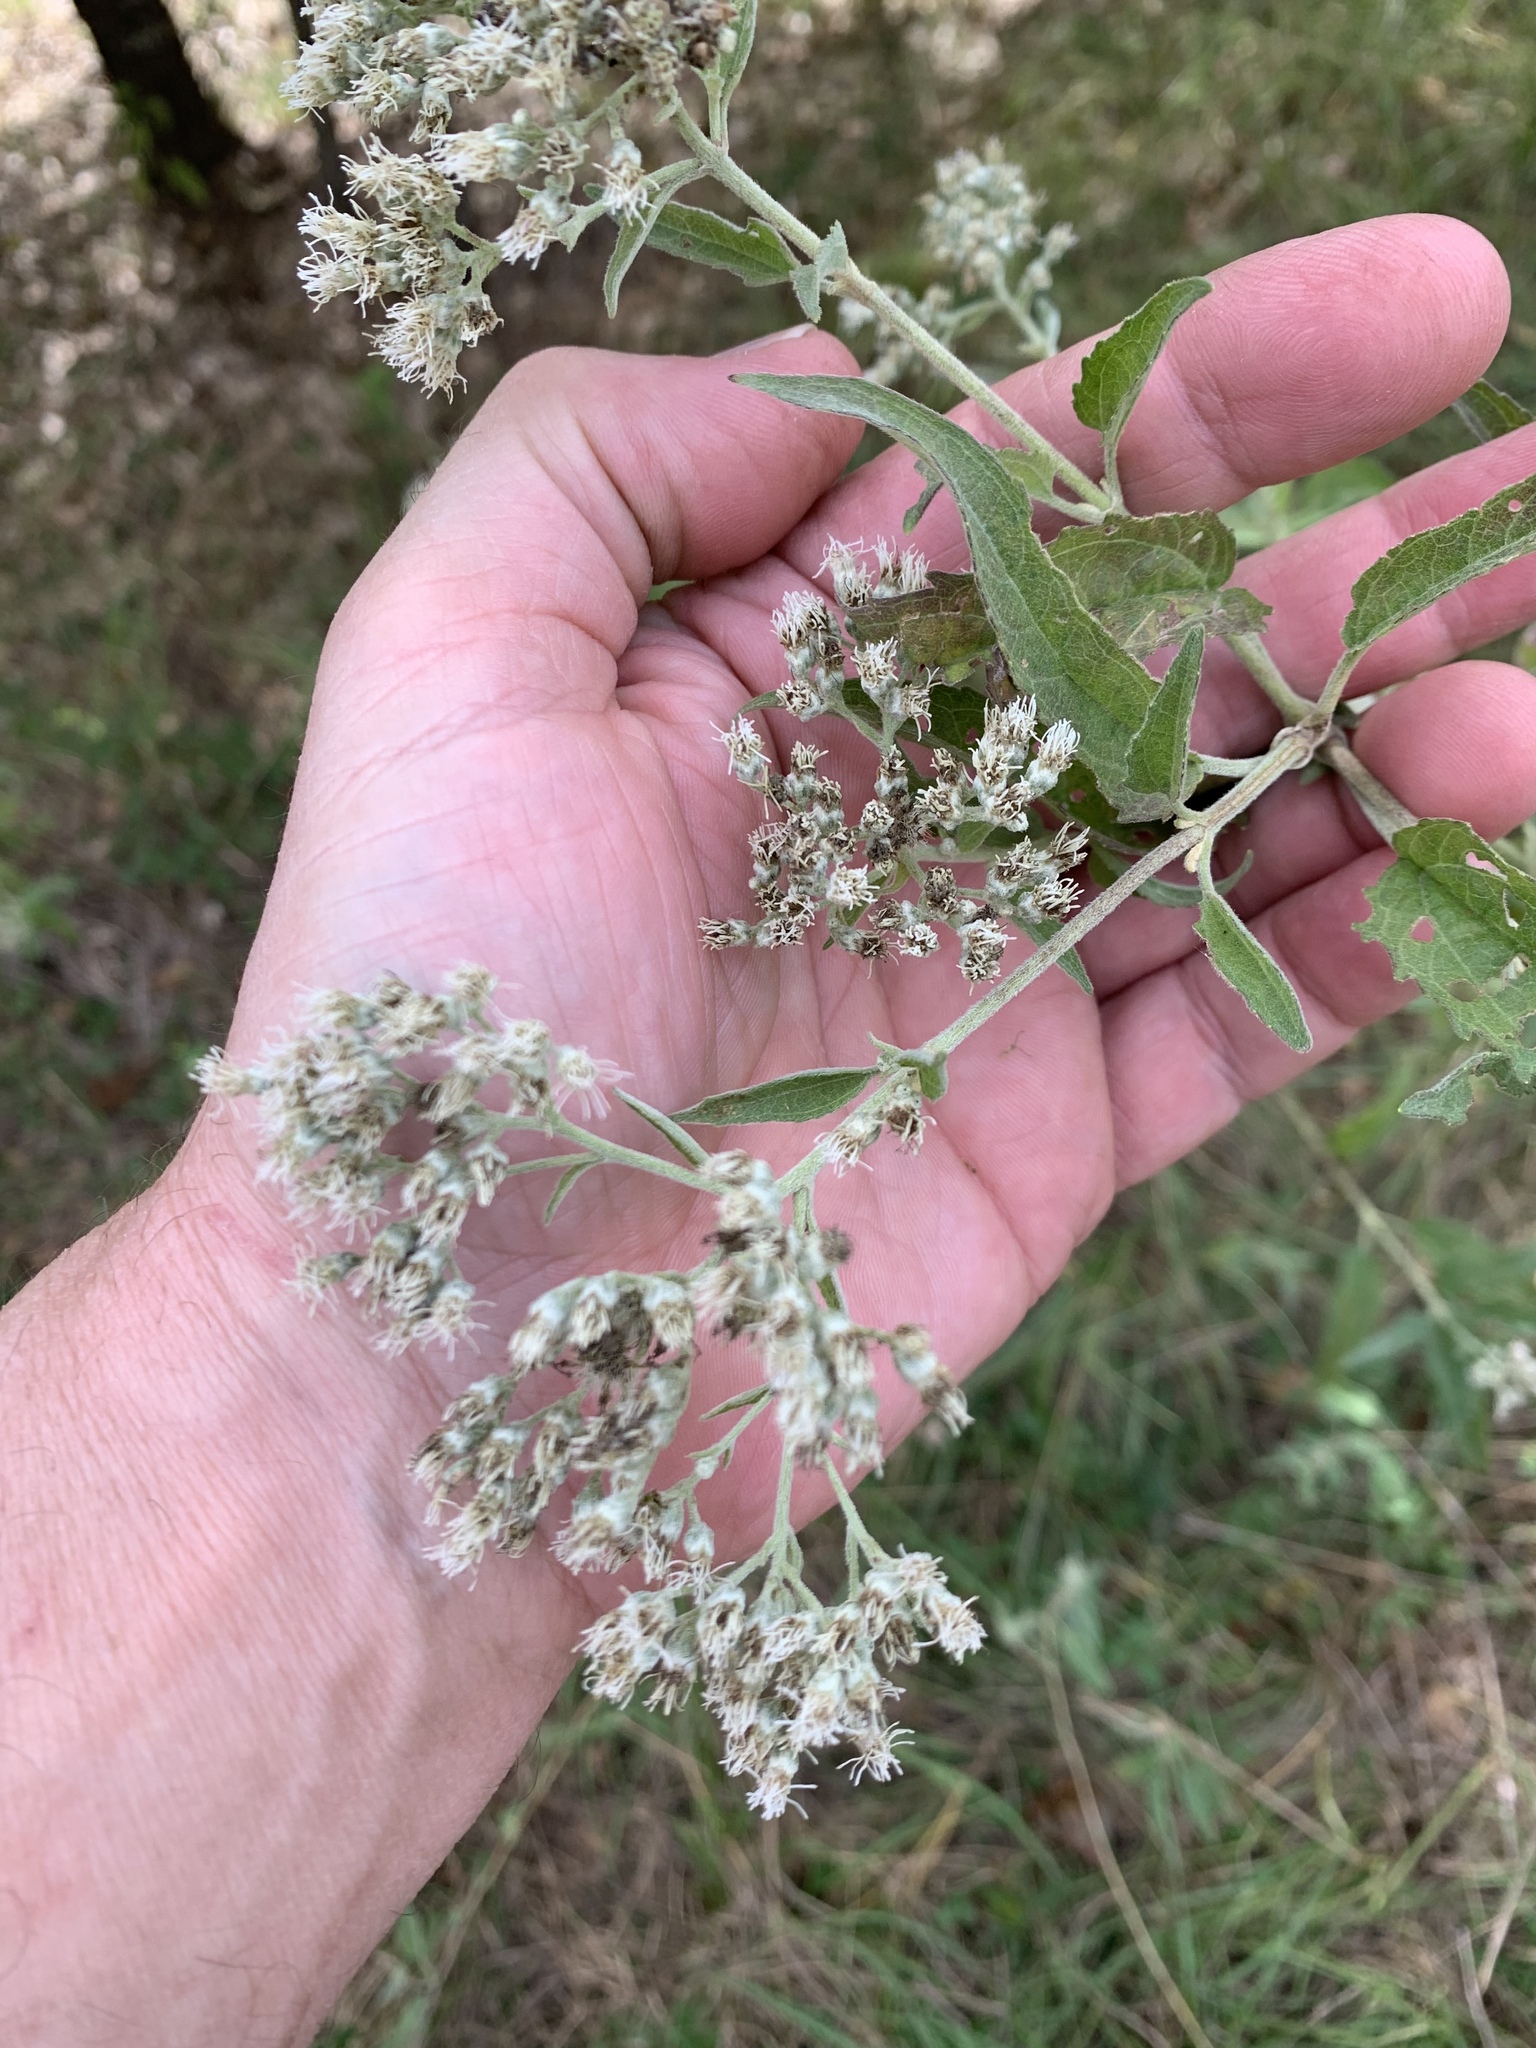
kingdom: Plantae
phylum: Tracheophyta
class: Magnoliopsida
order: Asterales
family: Asteraceae
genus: Eupatorium
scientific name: Eupatorium serotinum
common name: Late boneset
